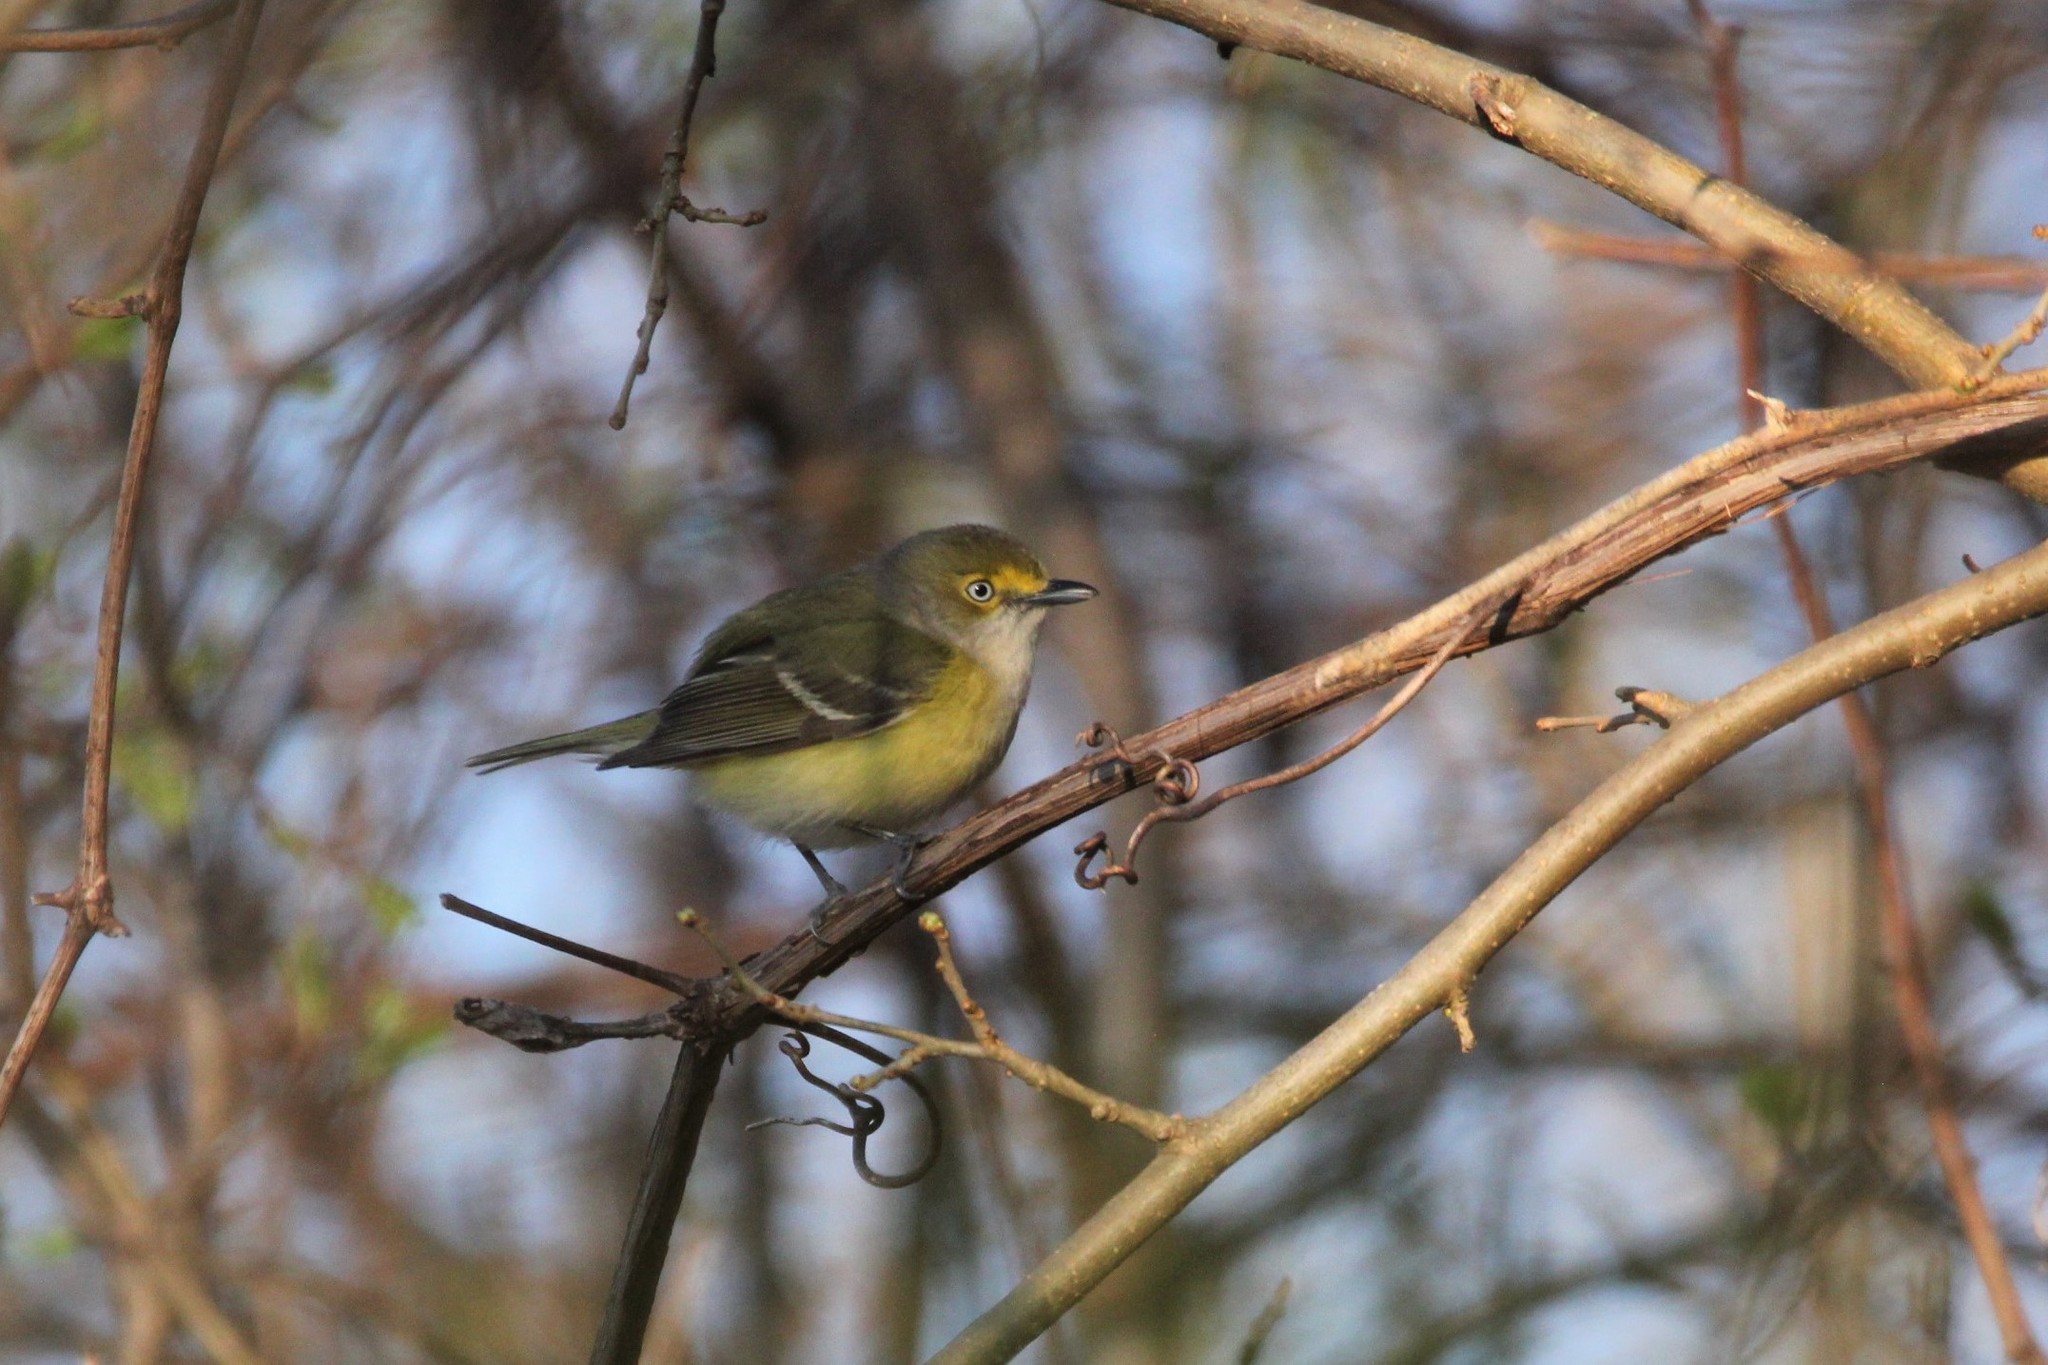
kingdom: Animalia
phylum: Chordata
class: Aves
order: Passeriformes
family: Vireonidae
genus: Vireo
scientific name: Vireo griseus
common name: White-eyed vireo
